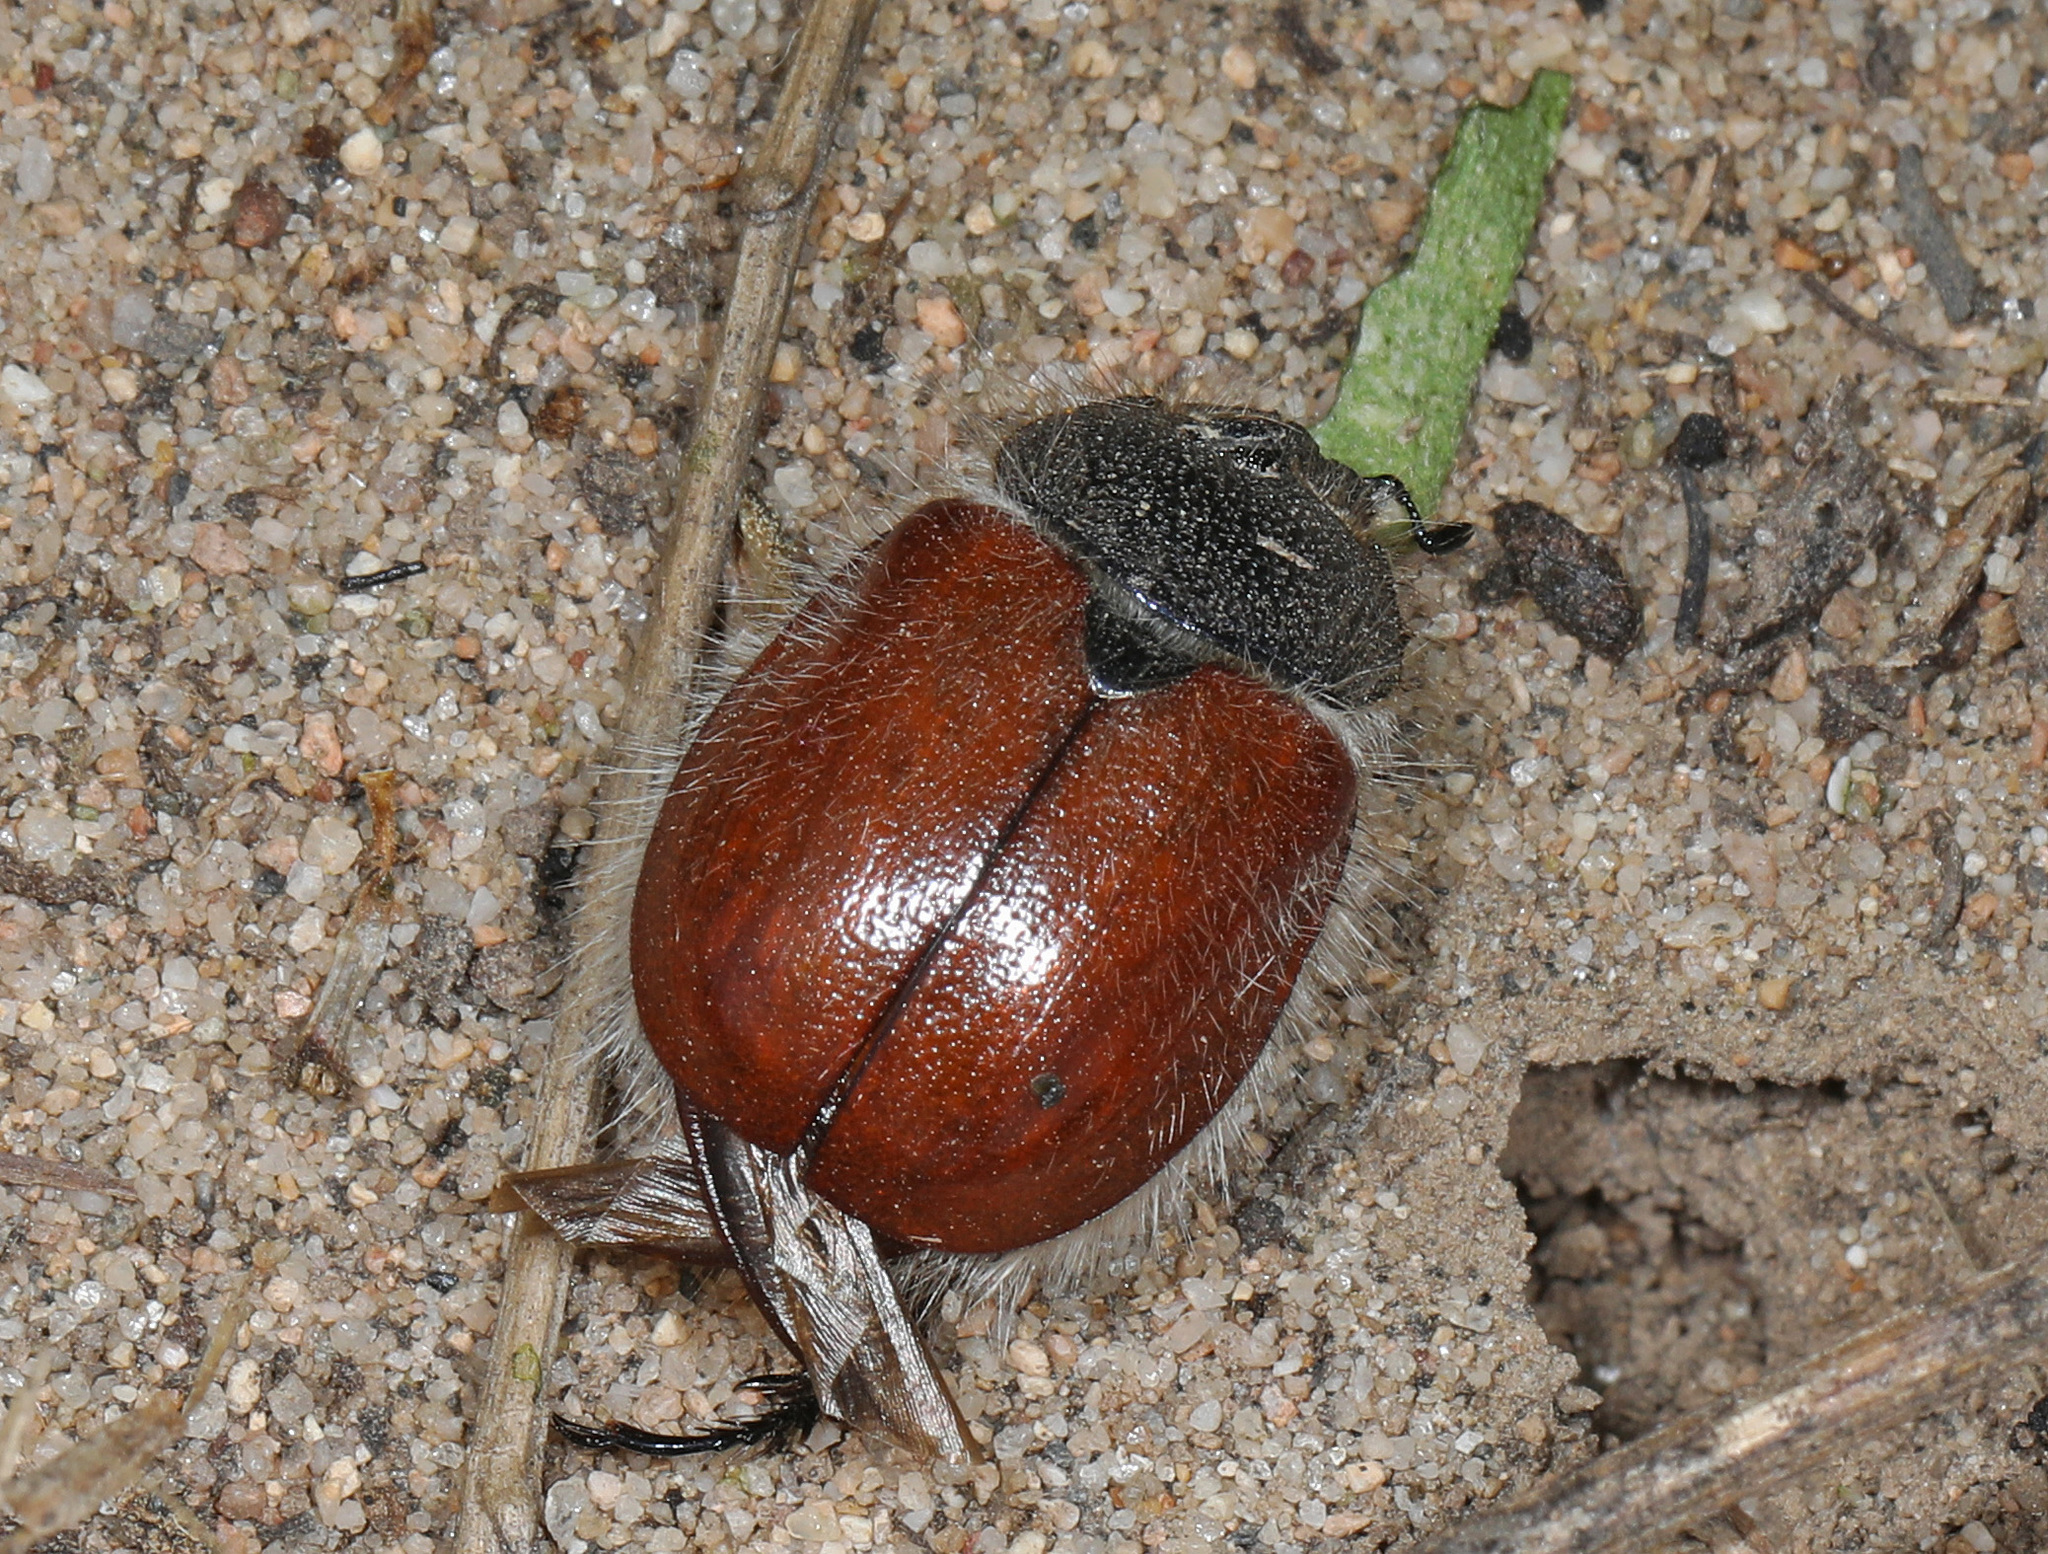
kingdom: Animalia
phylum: Arthropoda
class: Insecta
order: Coleoptera
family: Scarabaeidae
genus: Paracotalpa
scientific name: Paracotalpa ursina
